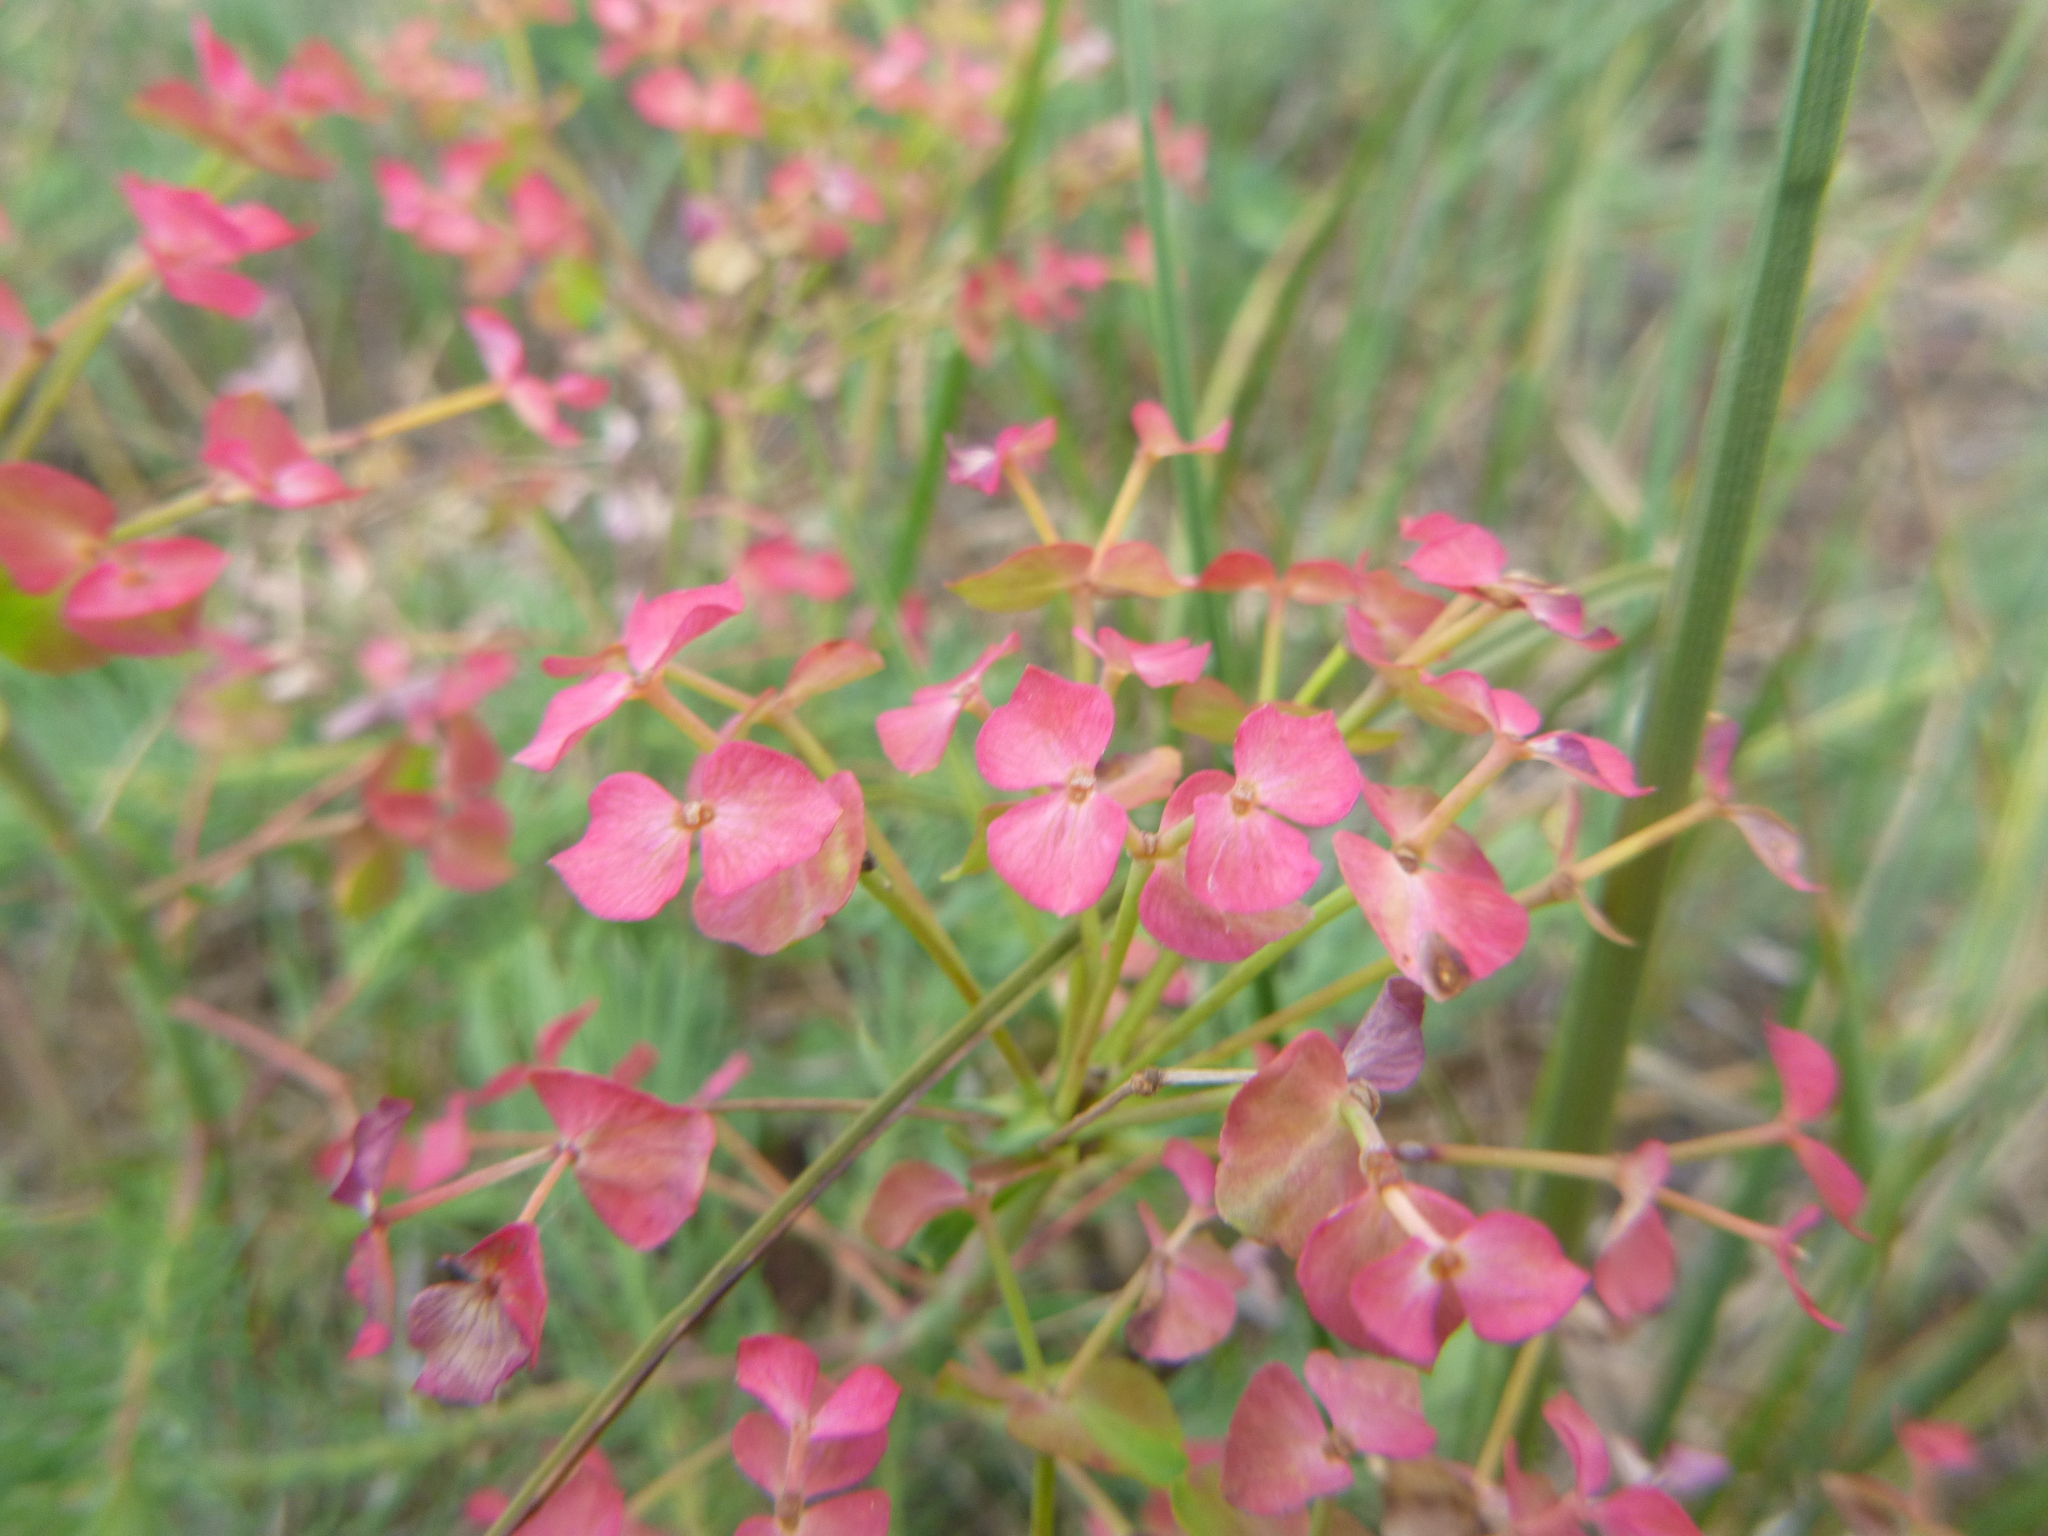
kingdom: Plantae
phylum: Tracheophyta
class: Magnoliopsida
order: Malpighiales
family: Euphorbiaceae
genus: Euphorbia
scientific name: Euphorbia cyparissias
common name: Cypress spurge
